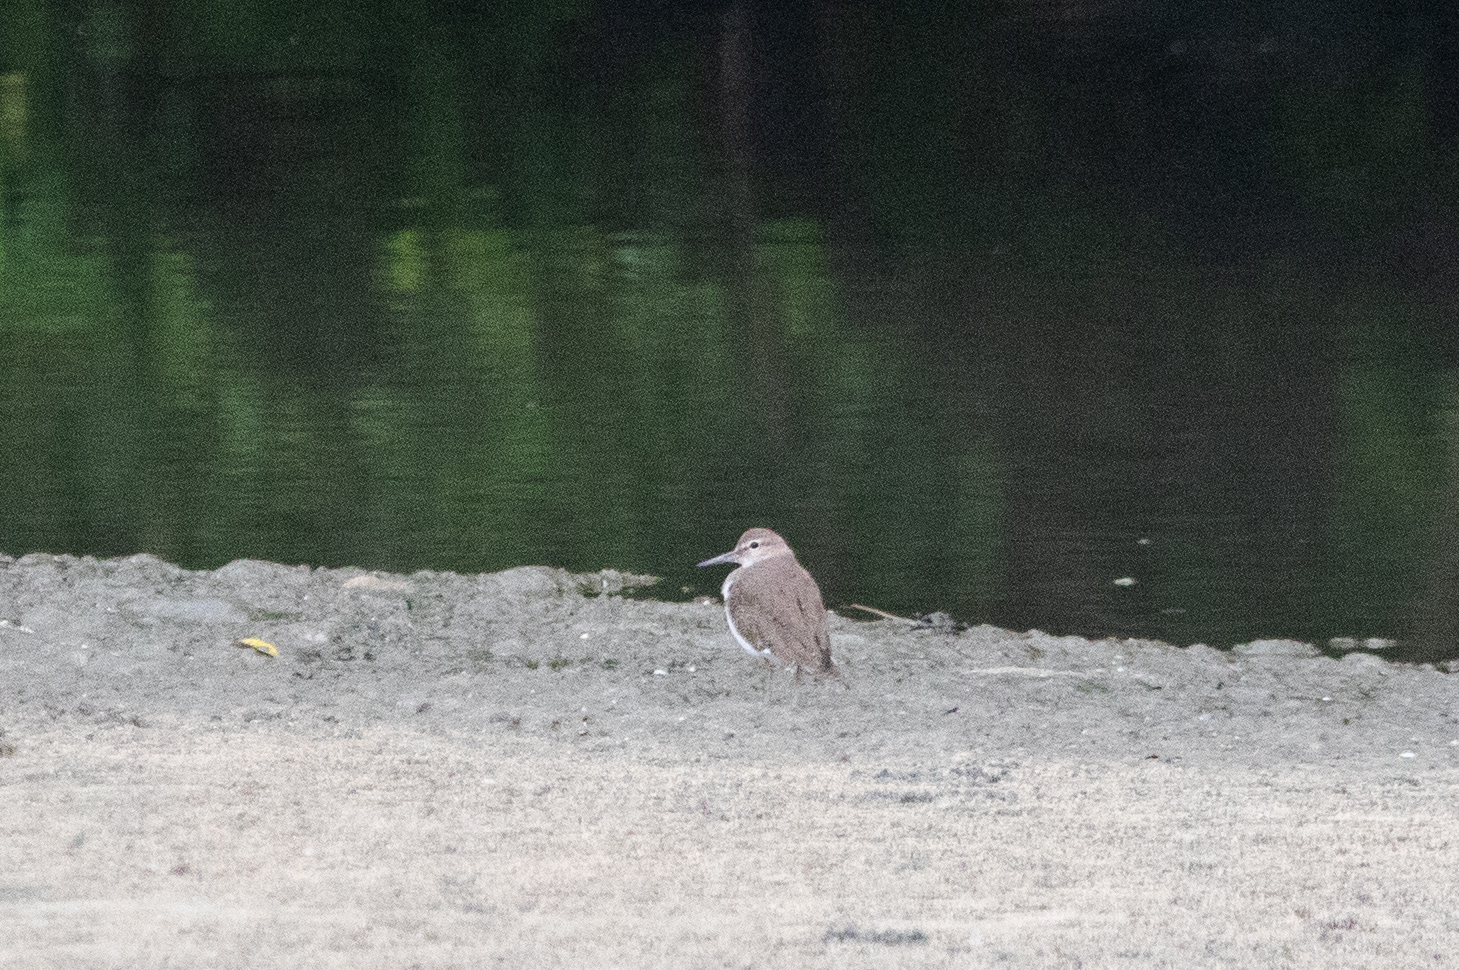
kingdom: Animalia
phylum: Chordata
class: Aves
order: Charadriiformes
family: Scolopacidae
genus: Actitis
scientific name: Actitis hypoleucos
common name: Common sandpiper
